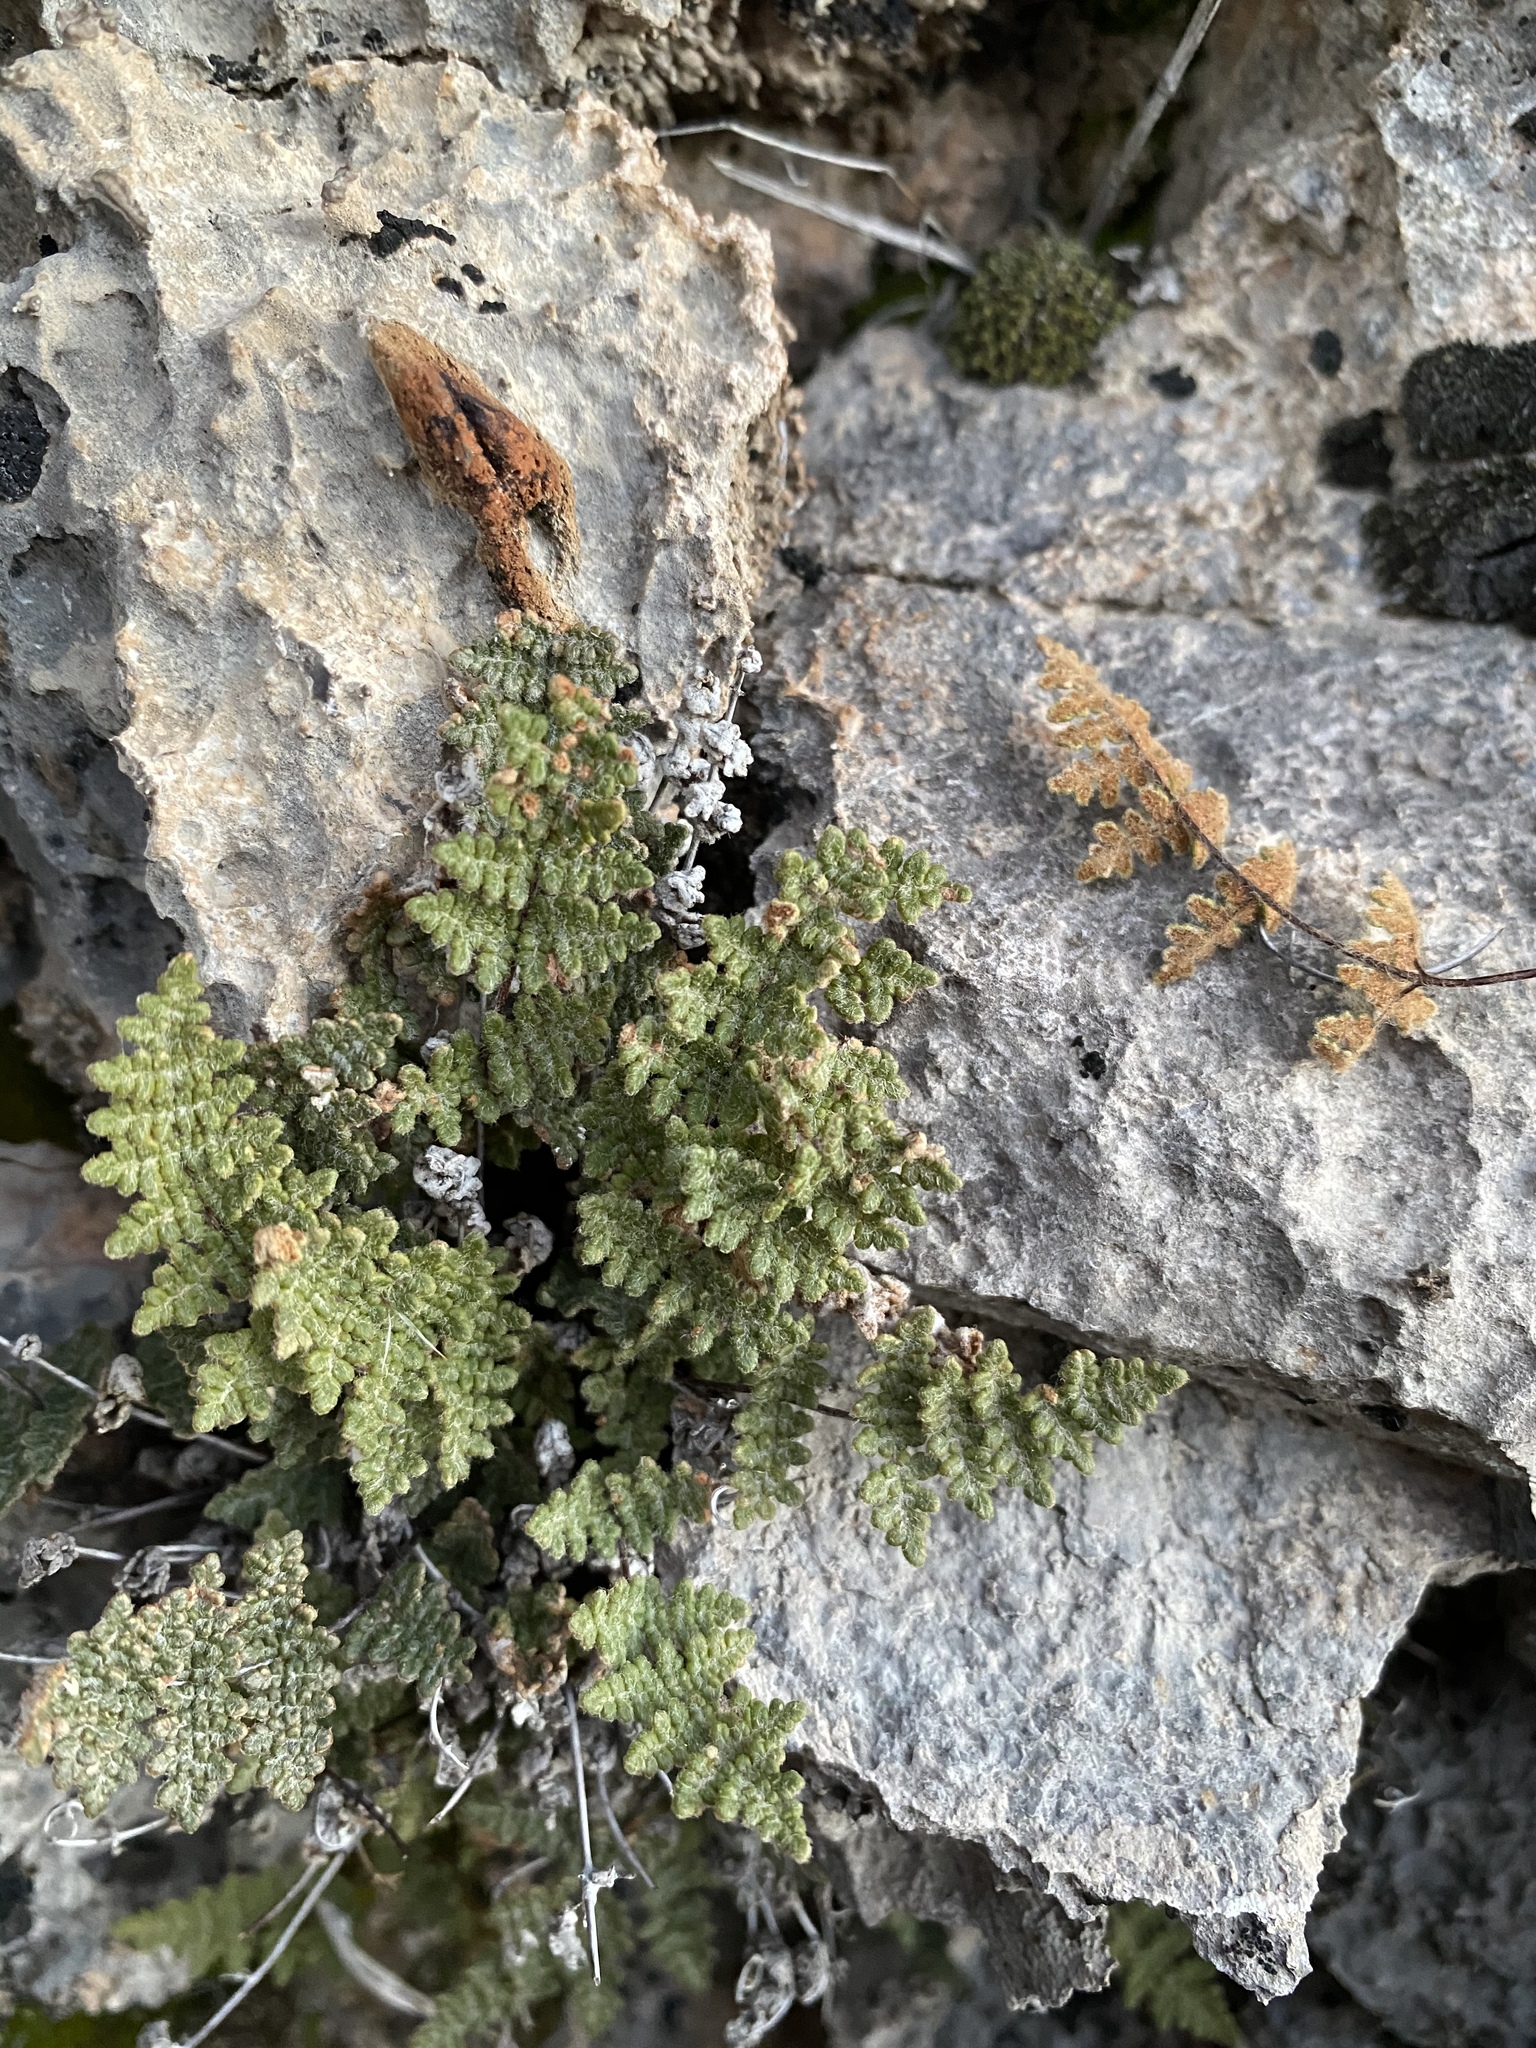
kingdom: Plantae
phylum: Tracheophyta
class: Polypodiopsida
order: Polypodiales
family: Pteridaceae
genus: Myriopteris
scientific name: Myriopteris gracilis
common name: Fee's lip fern
